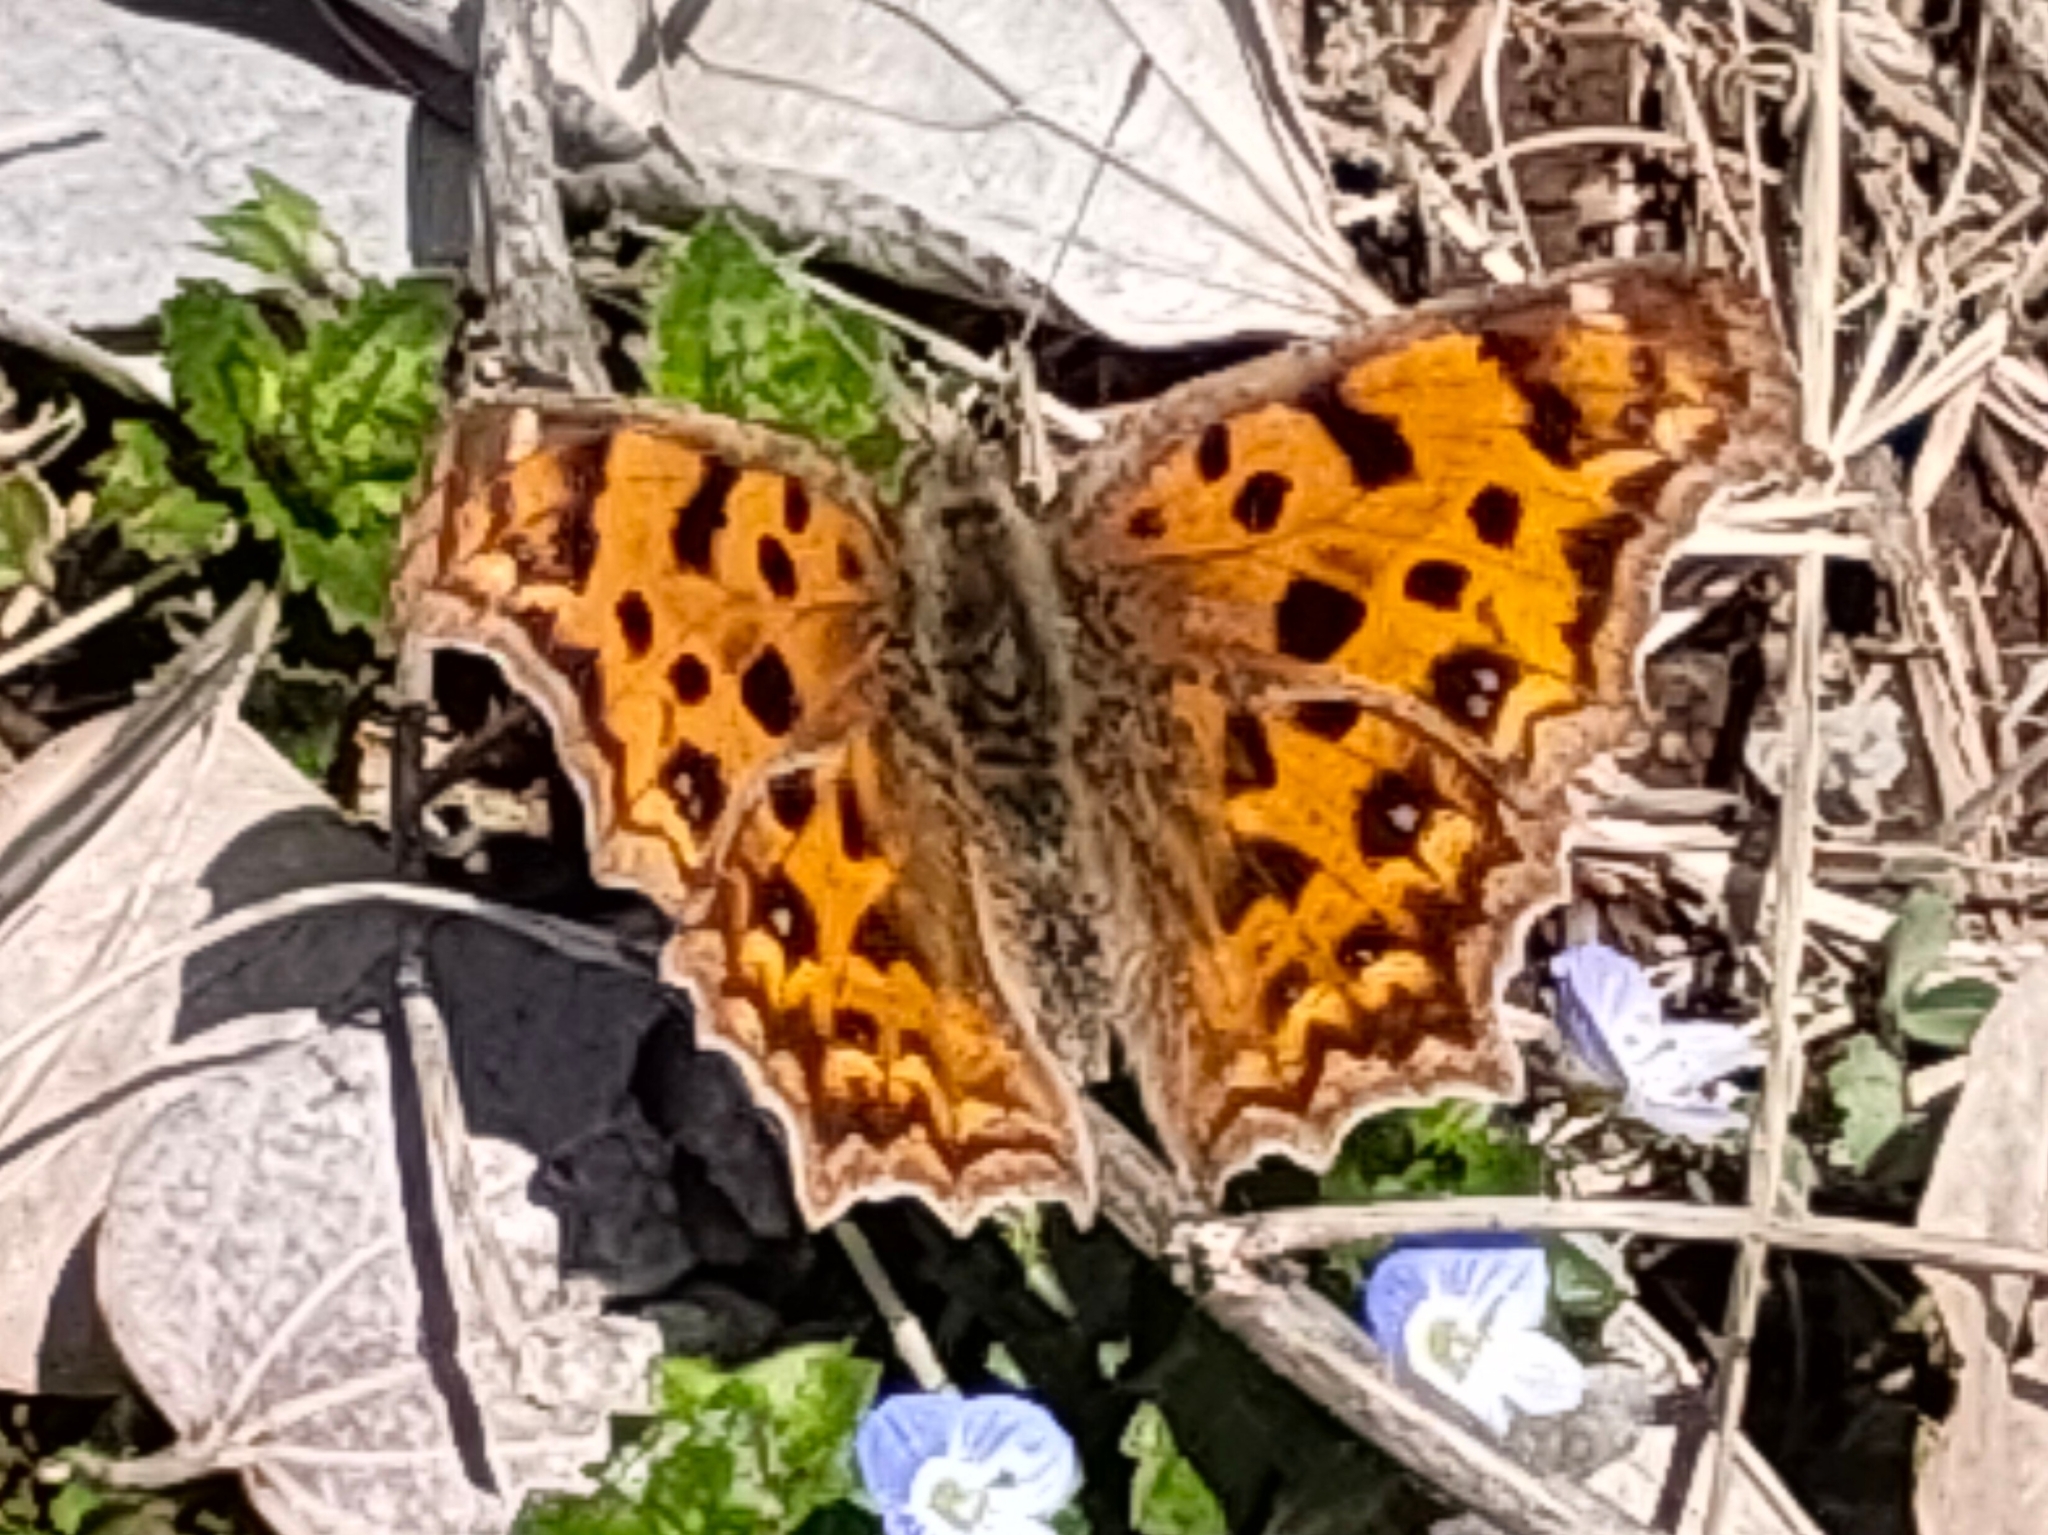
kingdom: Animalia
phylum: Arthropoda
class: Insecta
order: Lepidoptera
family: Nymphalidae
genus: Polygonia
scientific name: Polygonia c-aureum
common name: Asian comma
